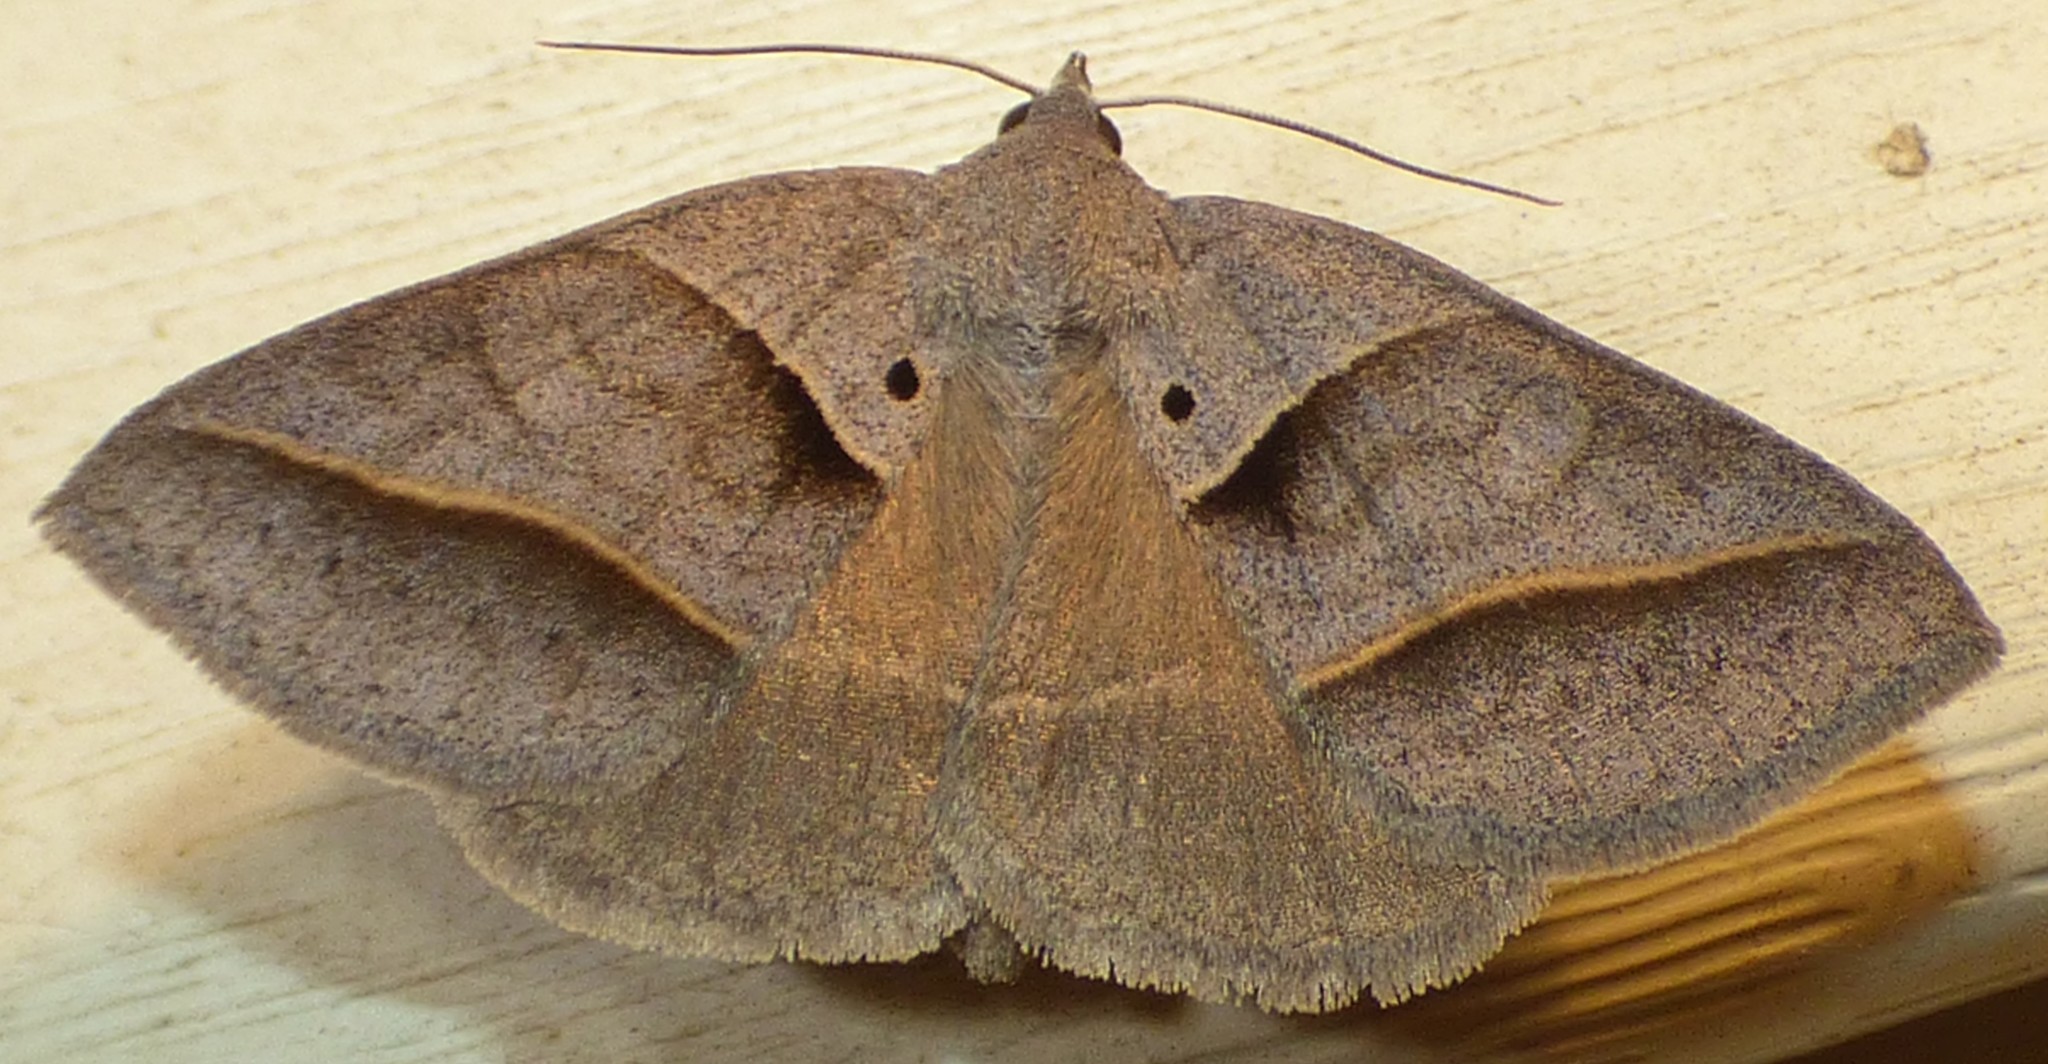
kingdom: Animalia
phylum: Arthropoda
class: Insecta
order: Lepidoptera
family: Erebidae
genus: Ptichodis
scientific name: Ptichodis herbarum
